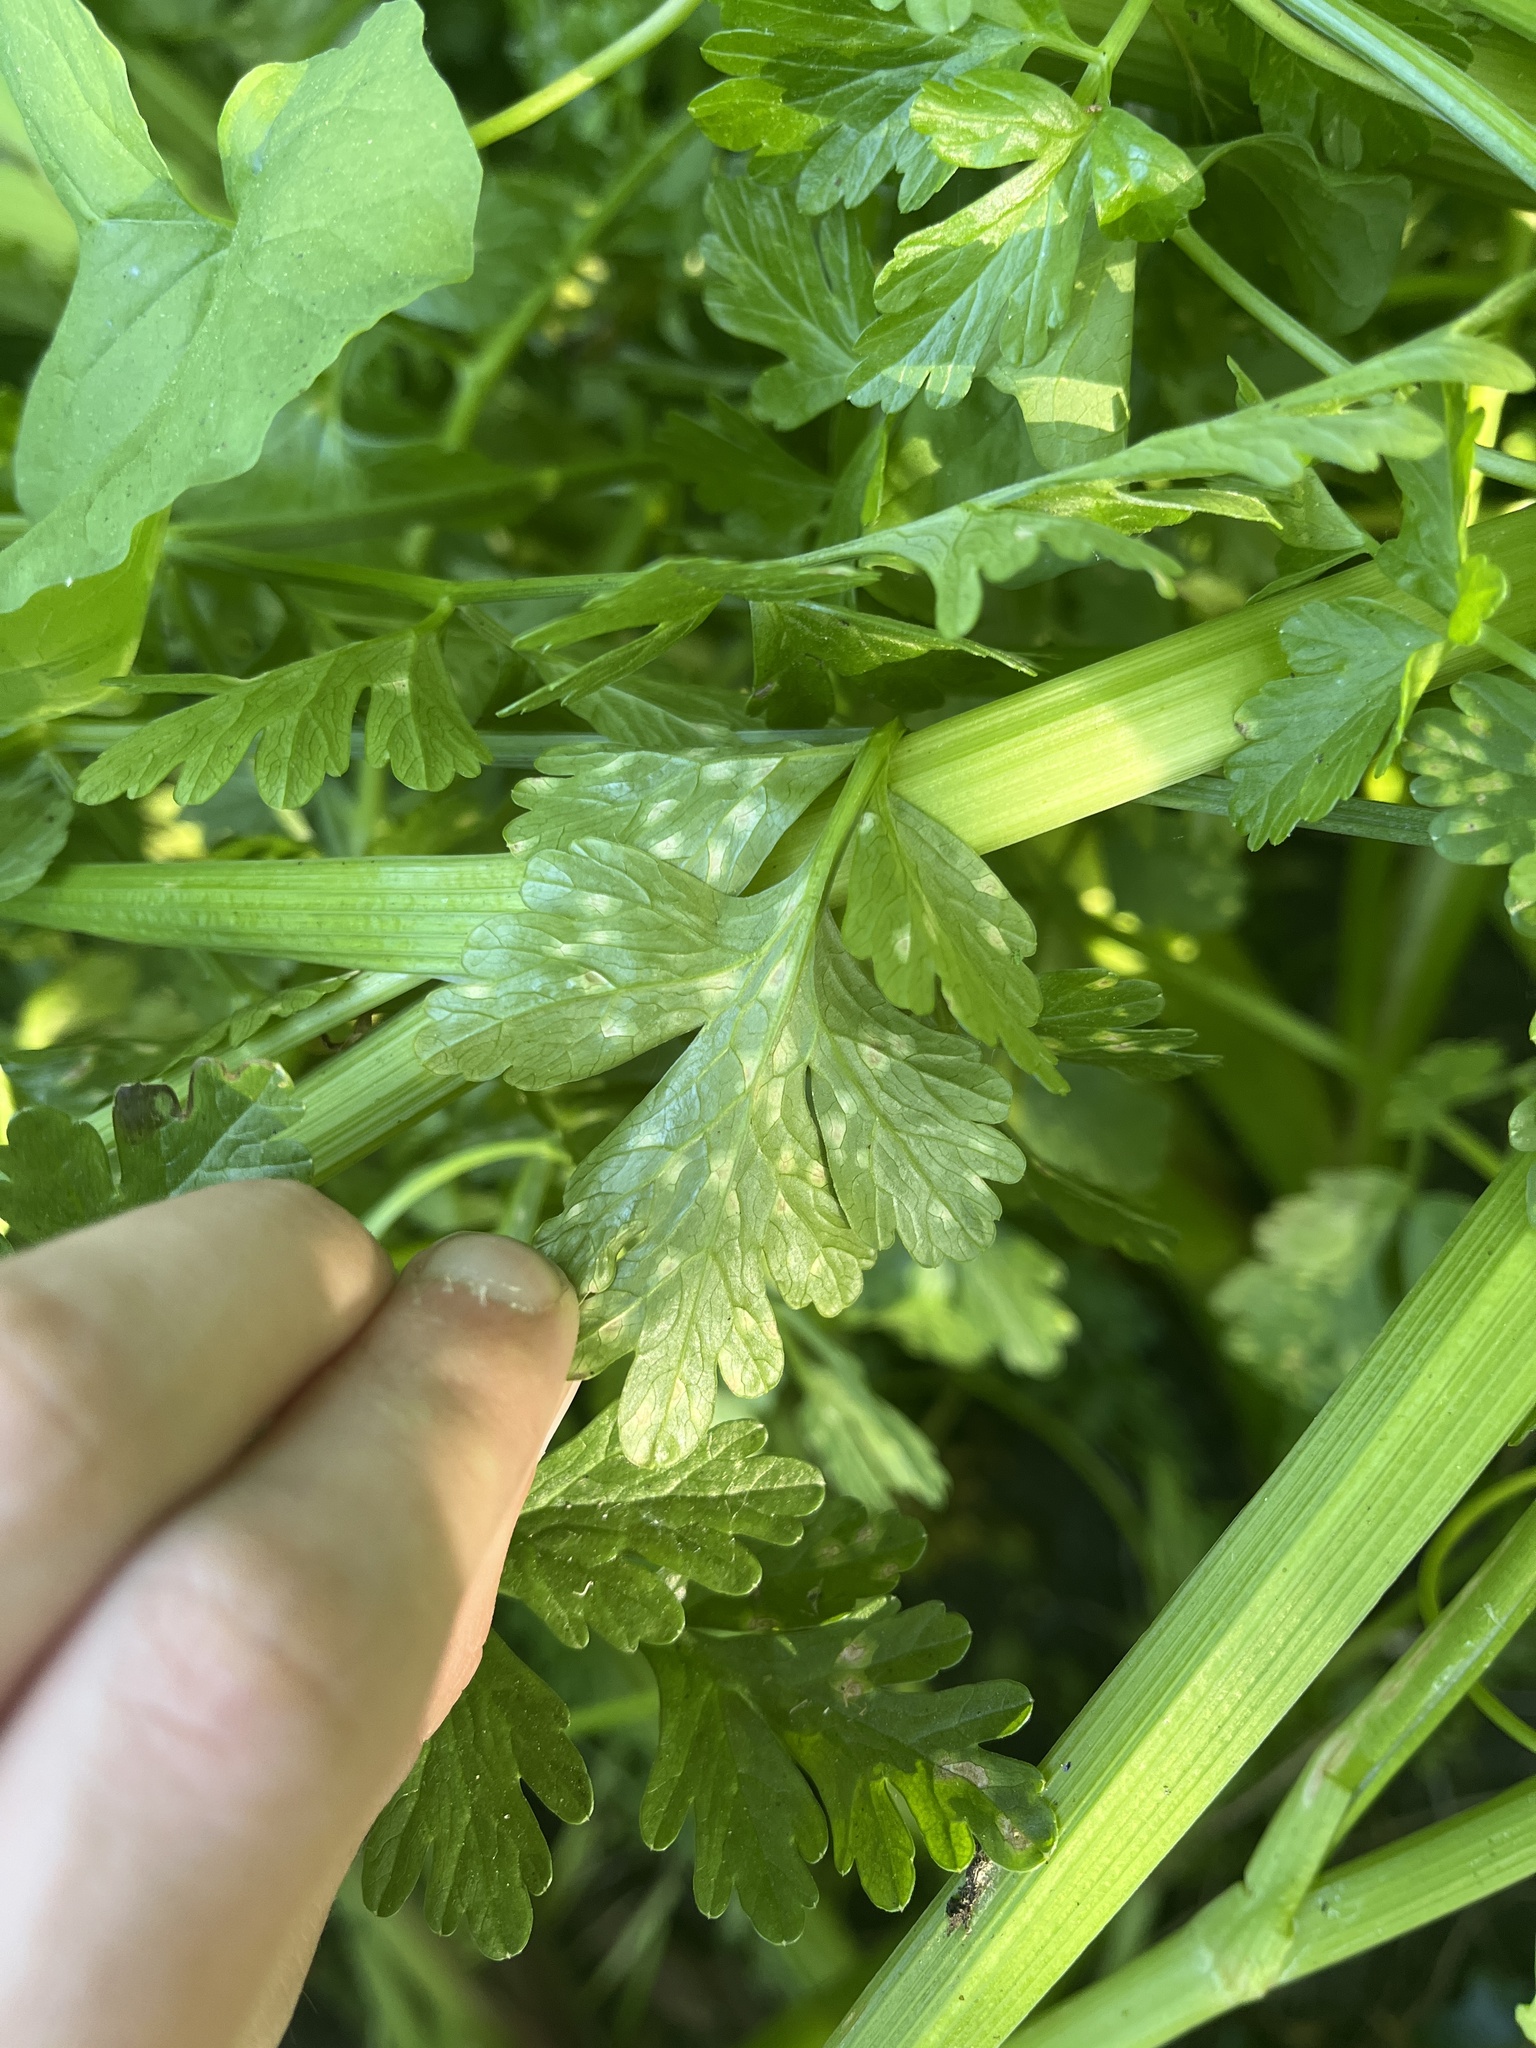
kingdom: Fungi
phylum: Basidiomycota
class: Exobasidiomycetes
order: Entylomatales
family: Entylomataceae
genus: Entyloma
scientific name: Entyloma helosciadii
